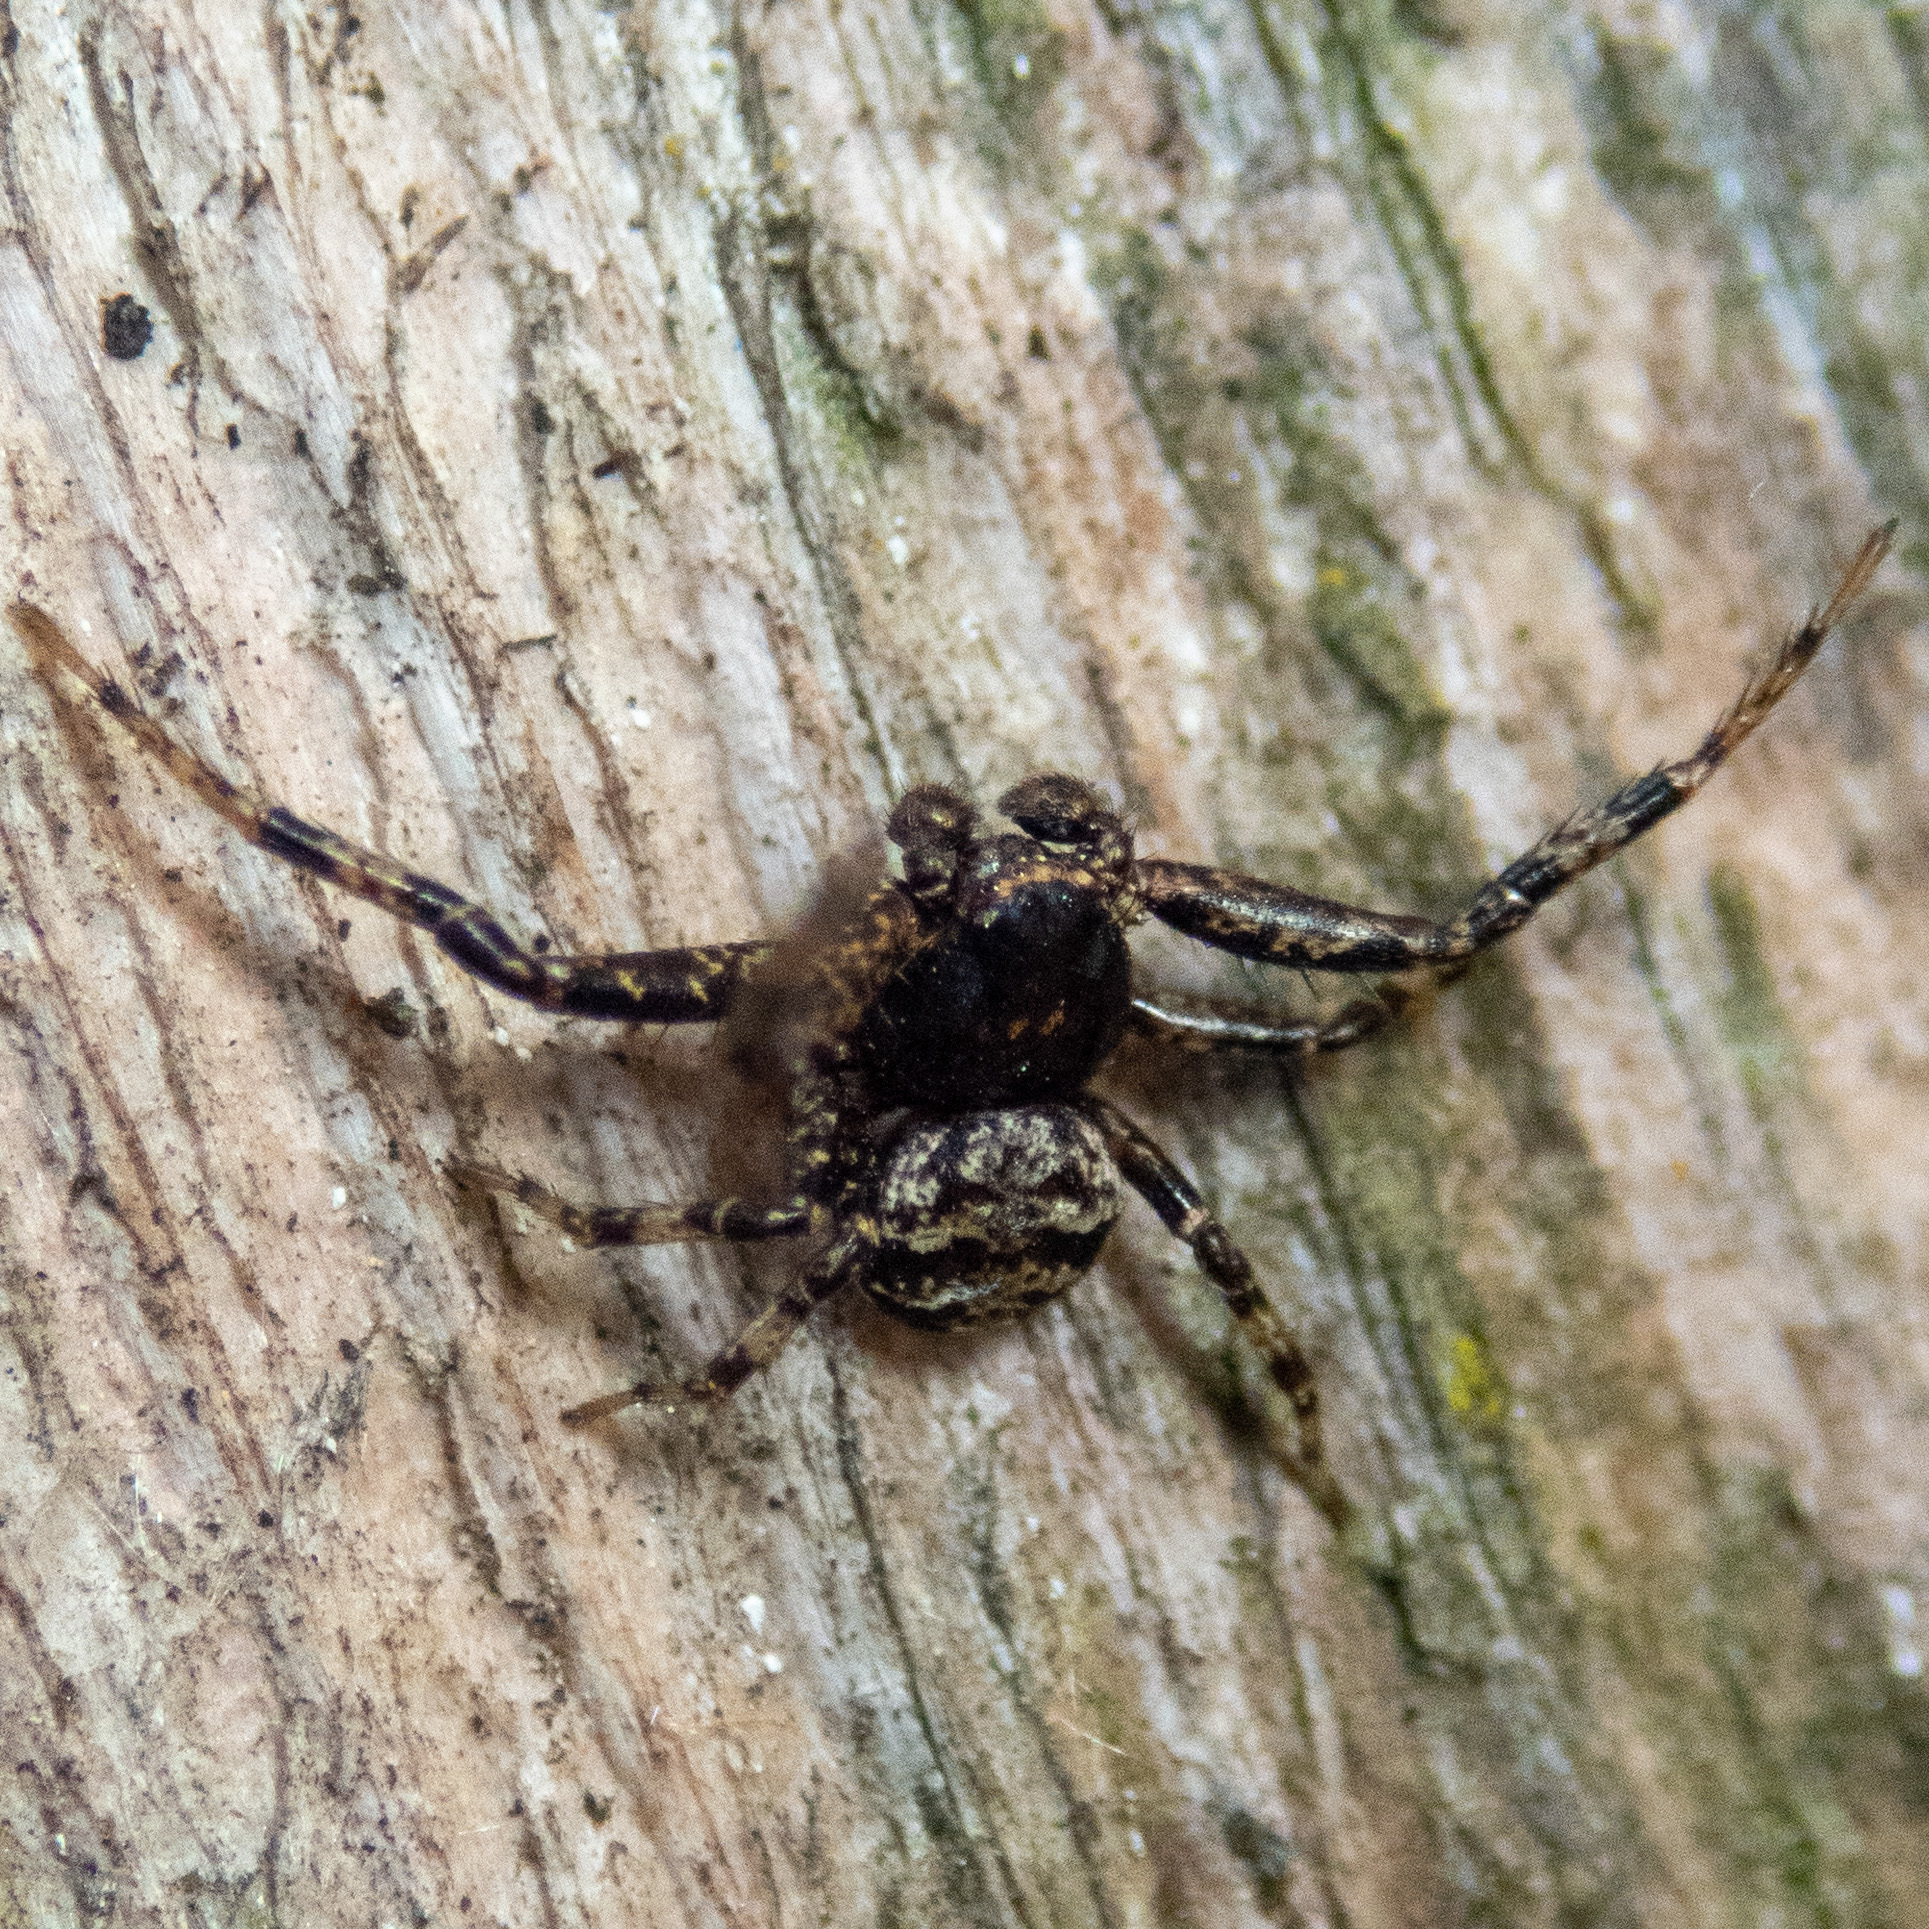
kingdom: Animalia
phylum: Arthropoda
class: Arachnida
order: Araneae
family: Thomisidae
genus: Bassaniana
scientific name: Bassaniana
